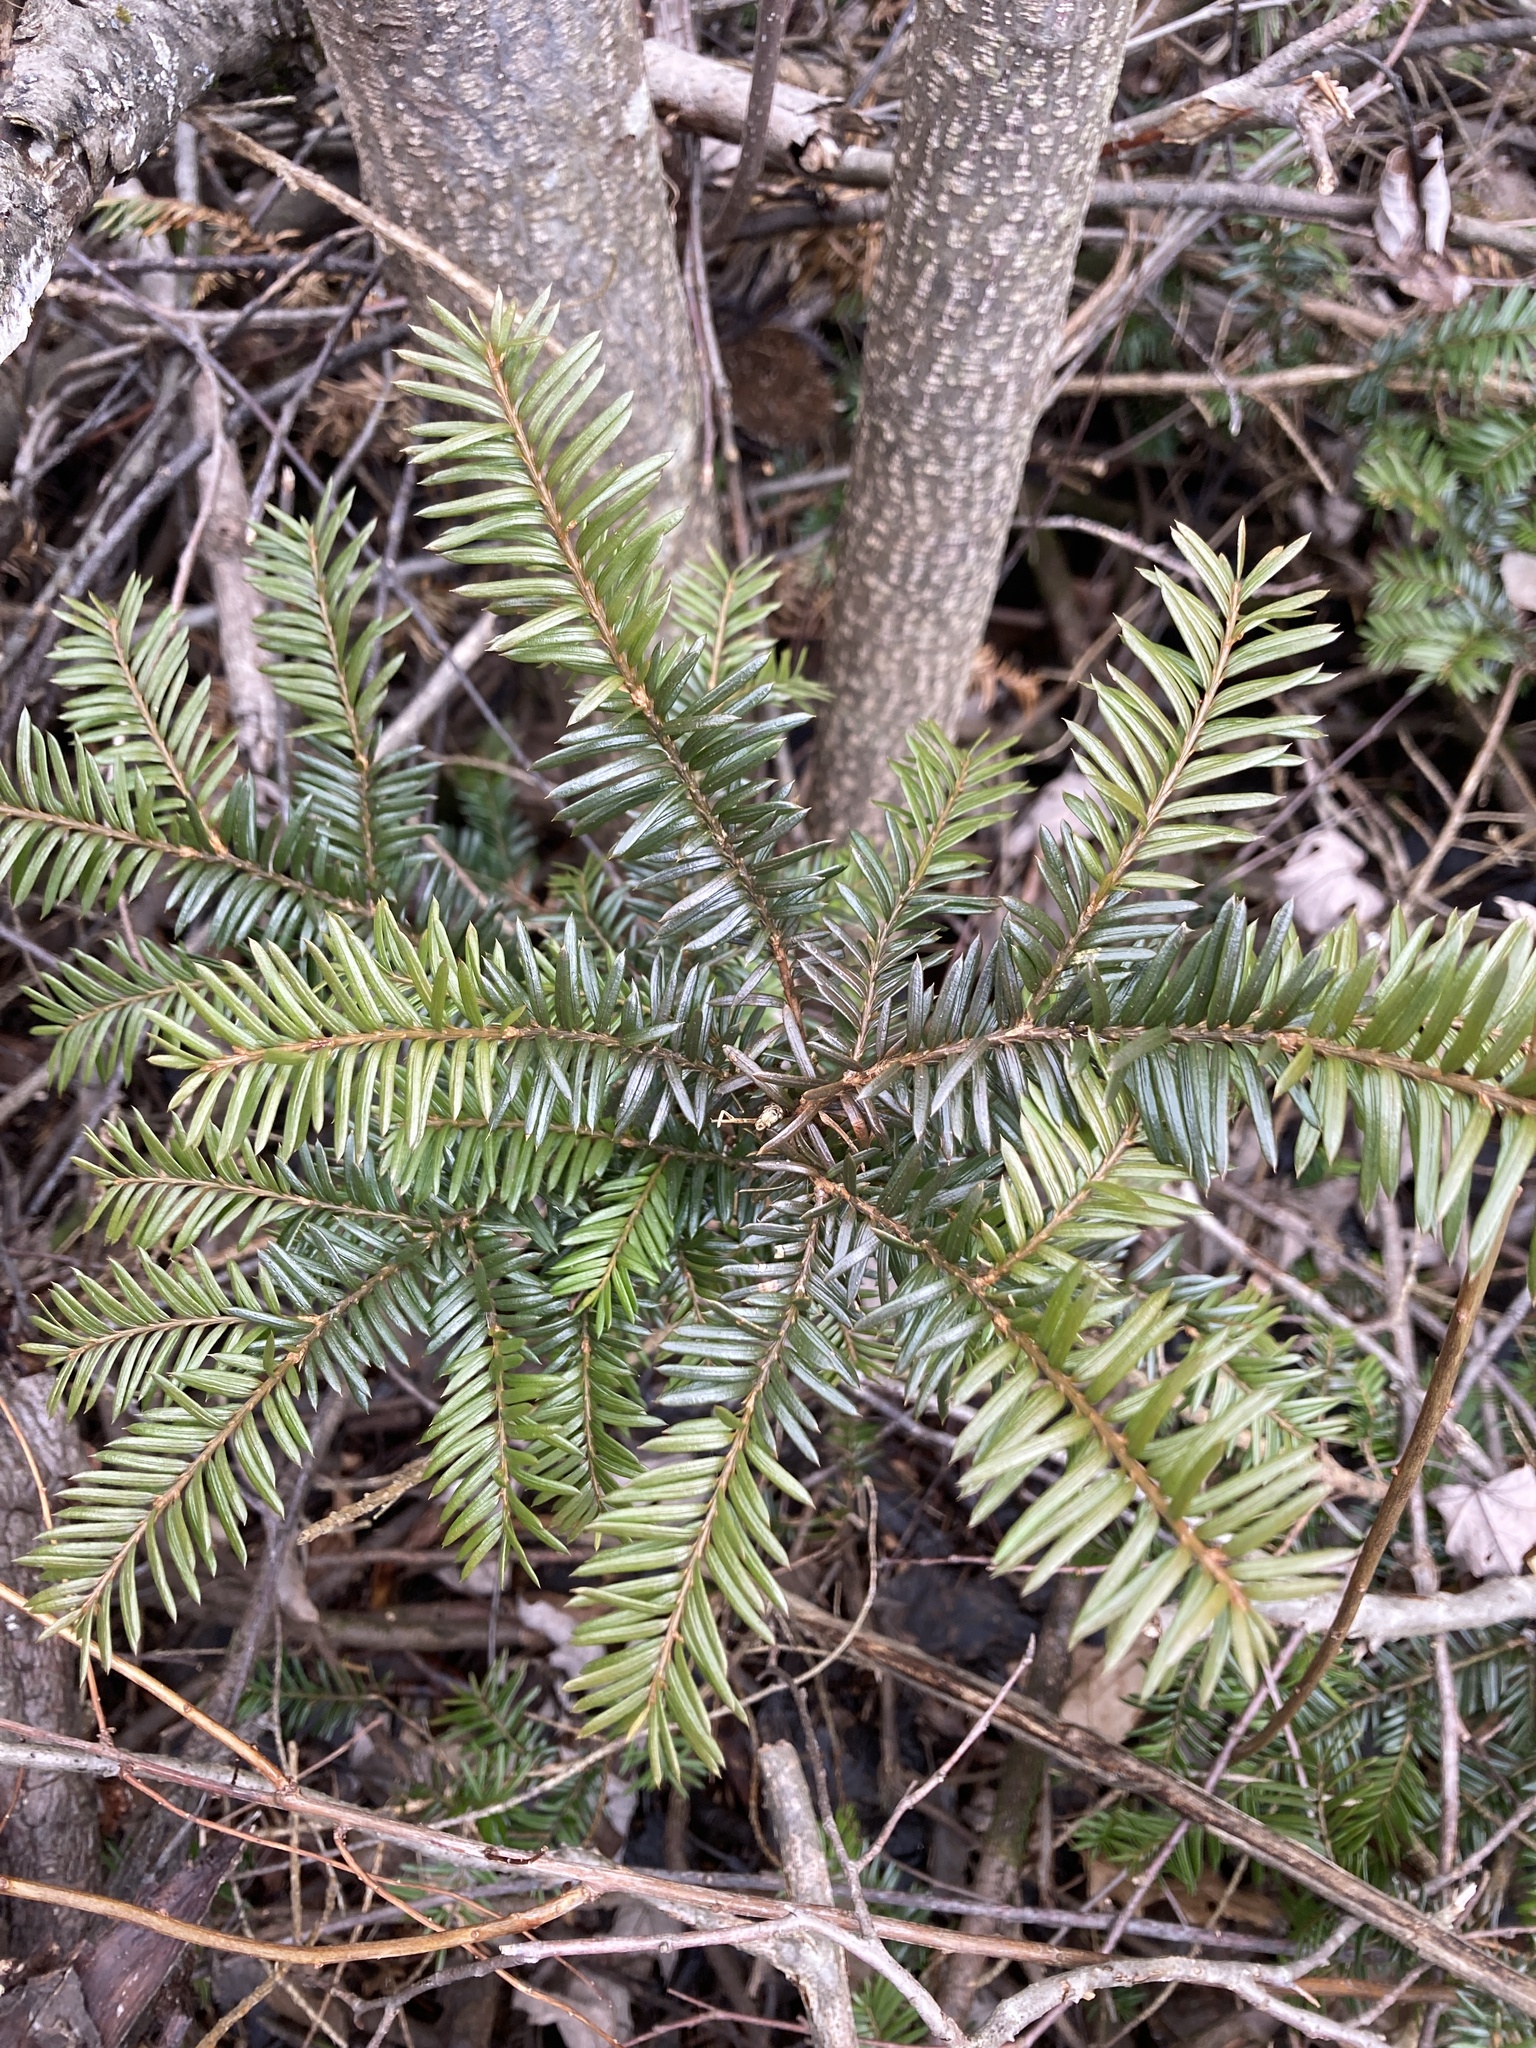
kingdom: Plantae
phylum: Tracheophyta
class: Pinopsida
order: Pinales
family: Taxaceae
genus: Taxus
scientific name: Taxus canadensis
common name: American yew
